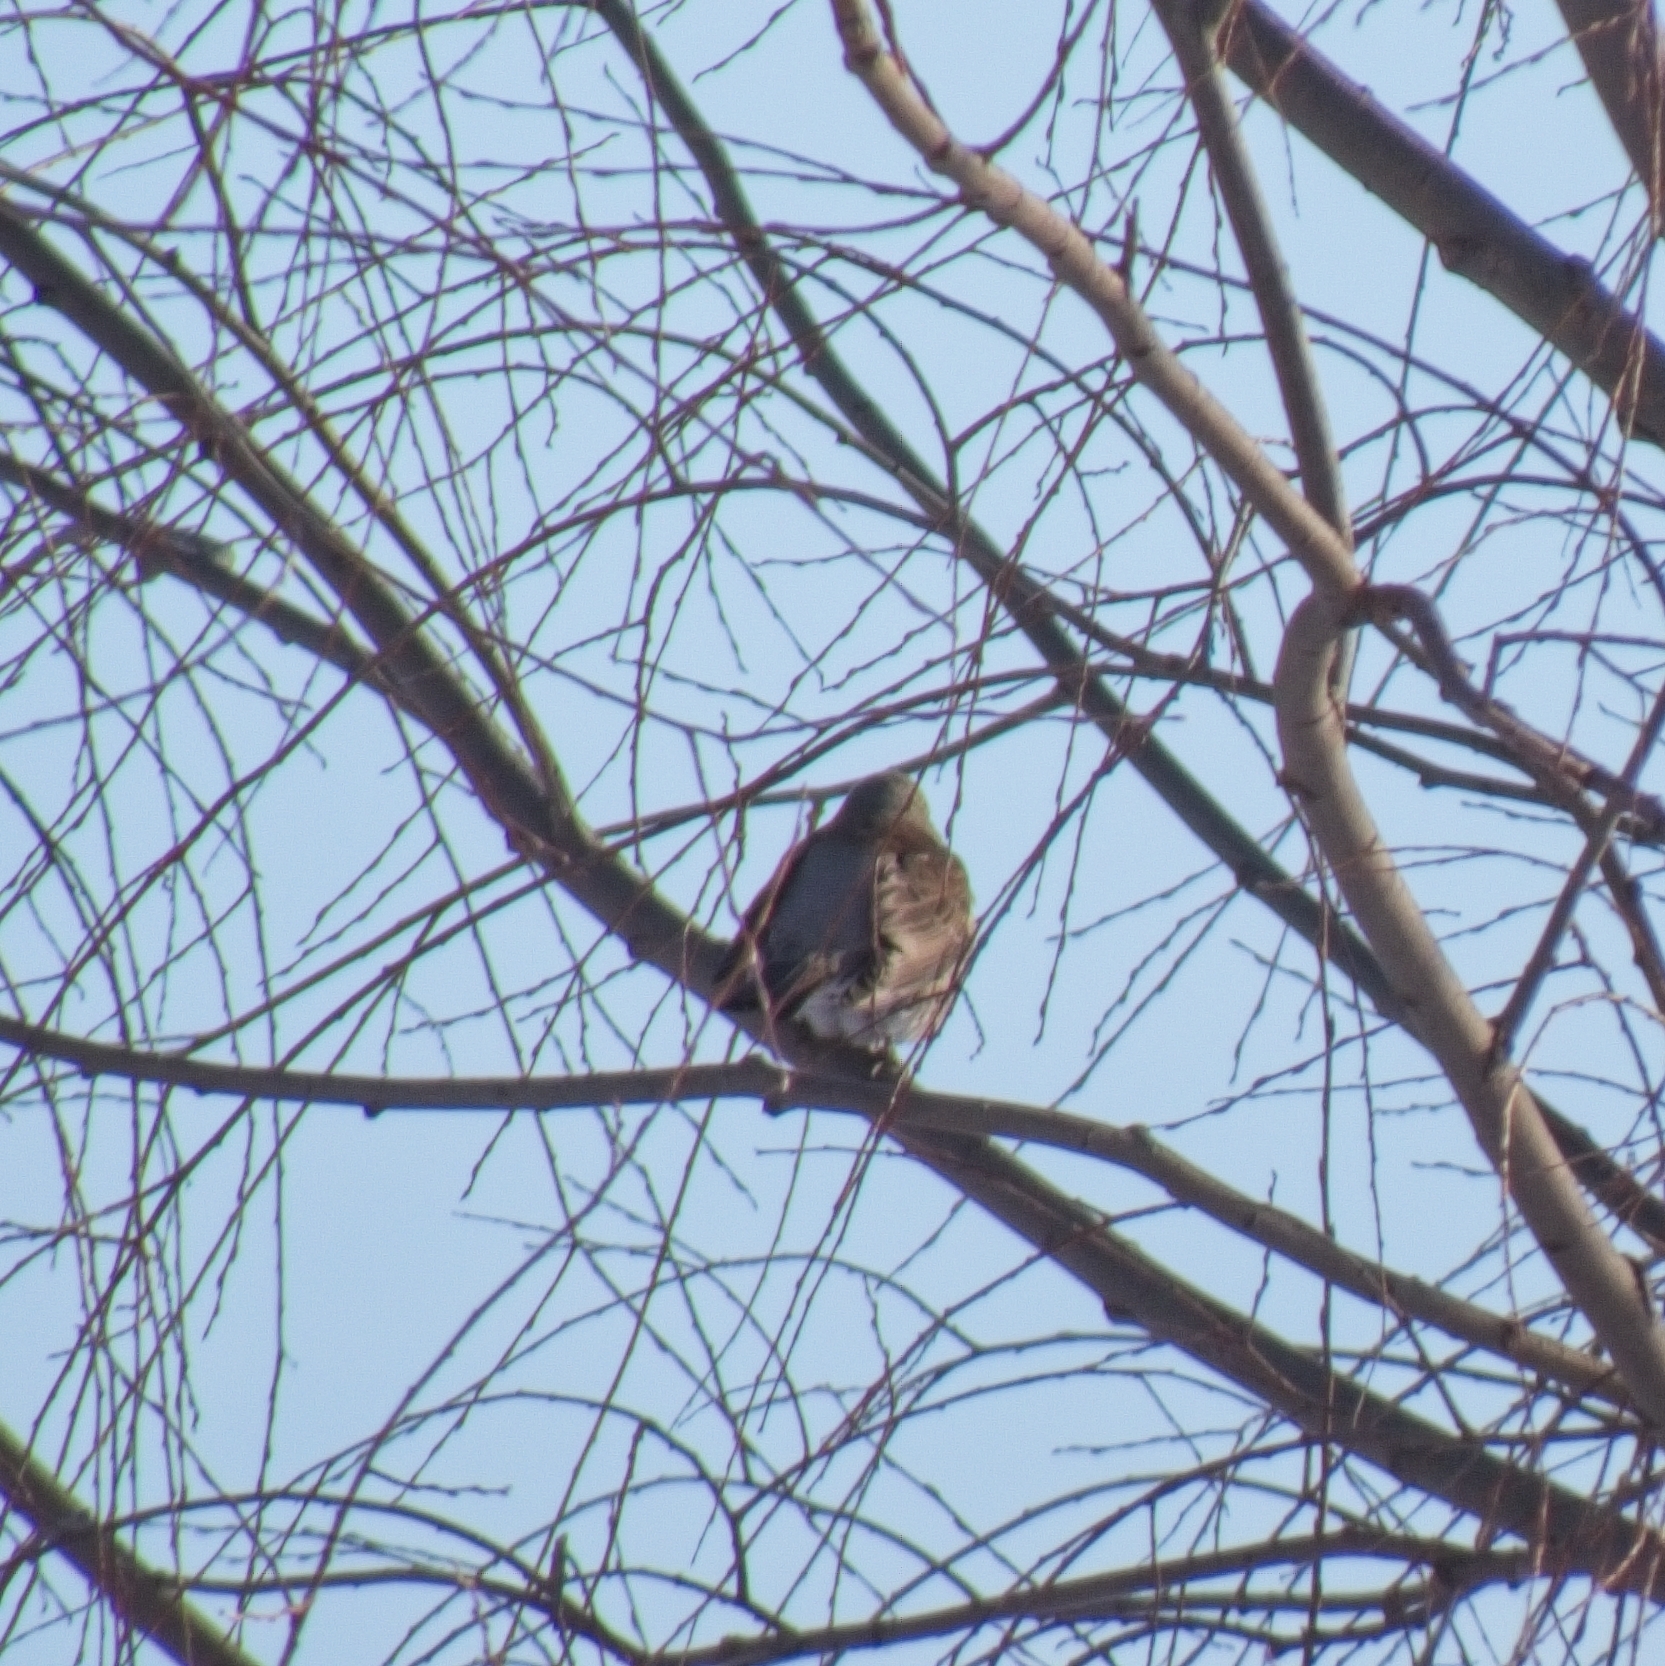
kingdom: Animalia
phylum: Chordata
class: Aves
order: Passeriformes
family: Turdidae
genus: Turdus
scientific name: Turdus pilaris
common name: Fieldfare
